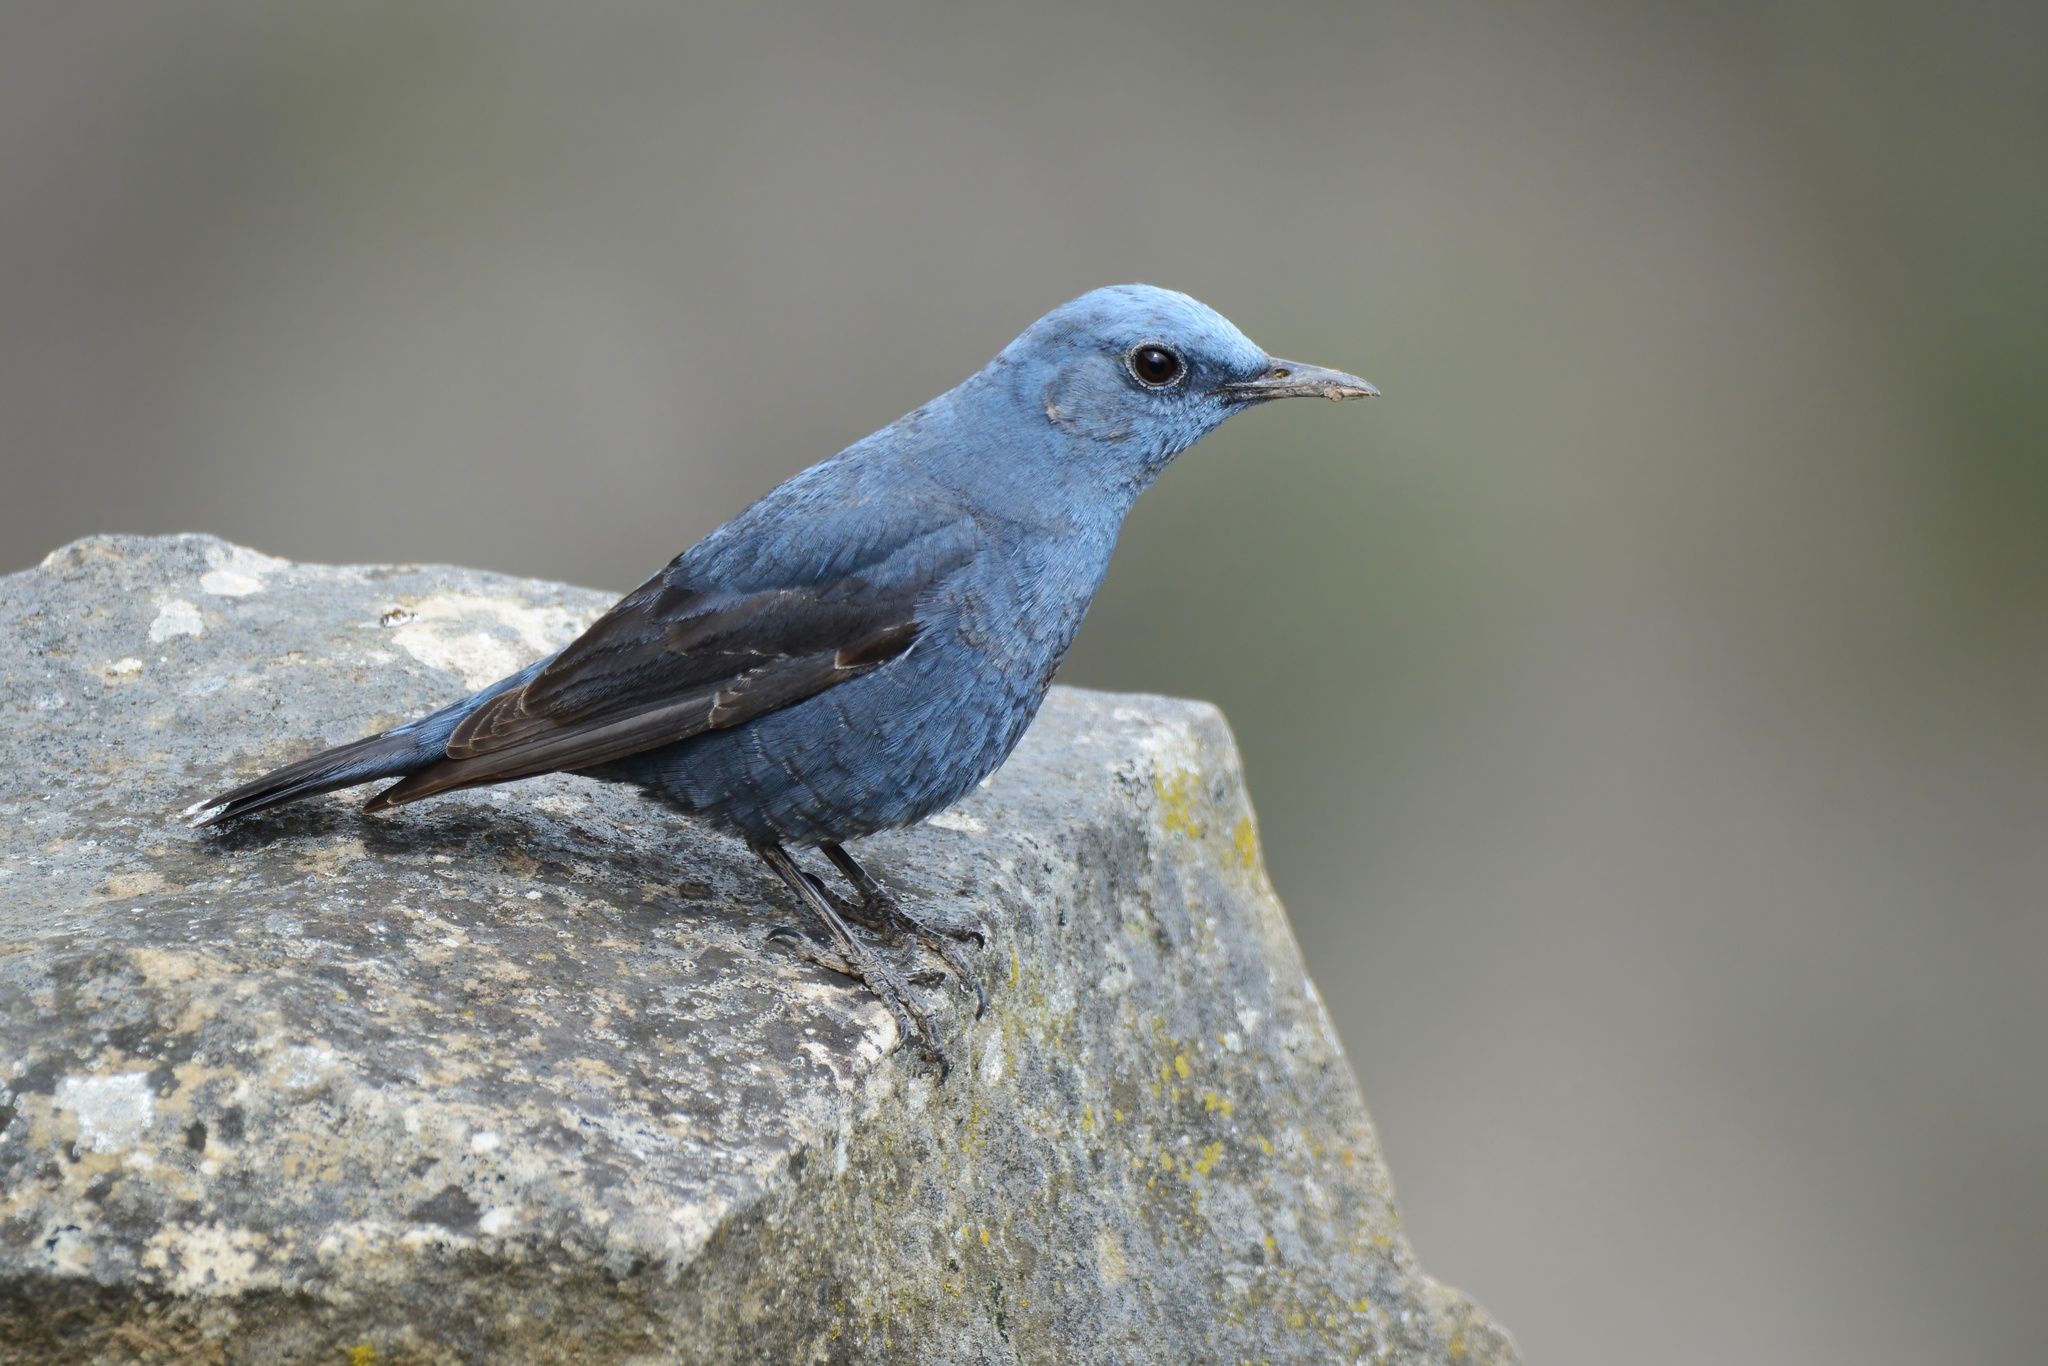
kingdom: Animalia
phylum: Chordata
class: Aves
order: Passeriformes
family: Muscicapidae
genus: Monticola
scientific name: Monticola solitarius
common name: Blue rock thrush
